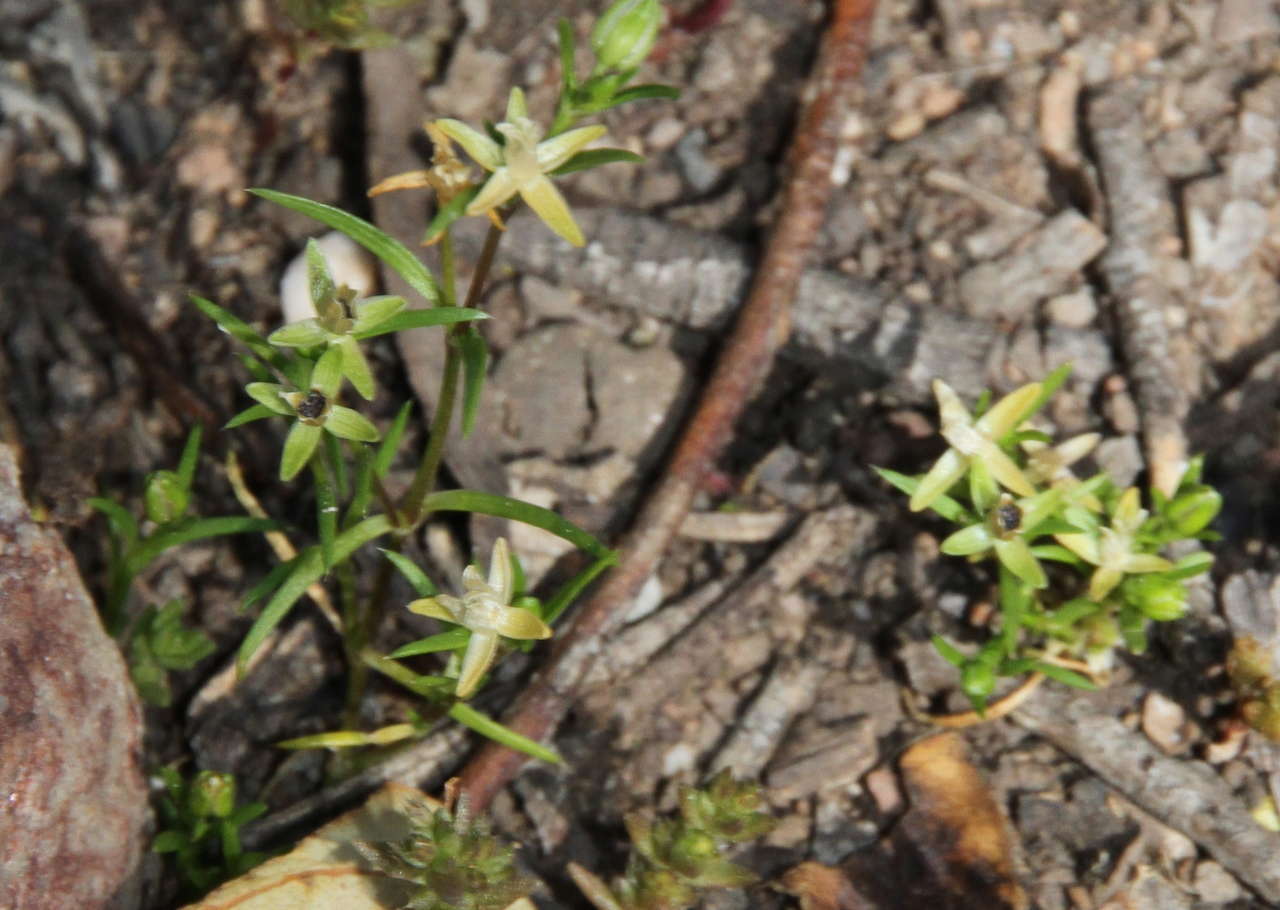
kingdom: Plantae
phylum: Tracheophyta
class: Magnoliopsida
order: Caryophyllales
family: Caryophyllaceae
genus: Sagina
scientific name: Sagina apetala
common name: Annual pearlwort
